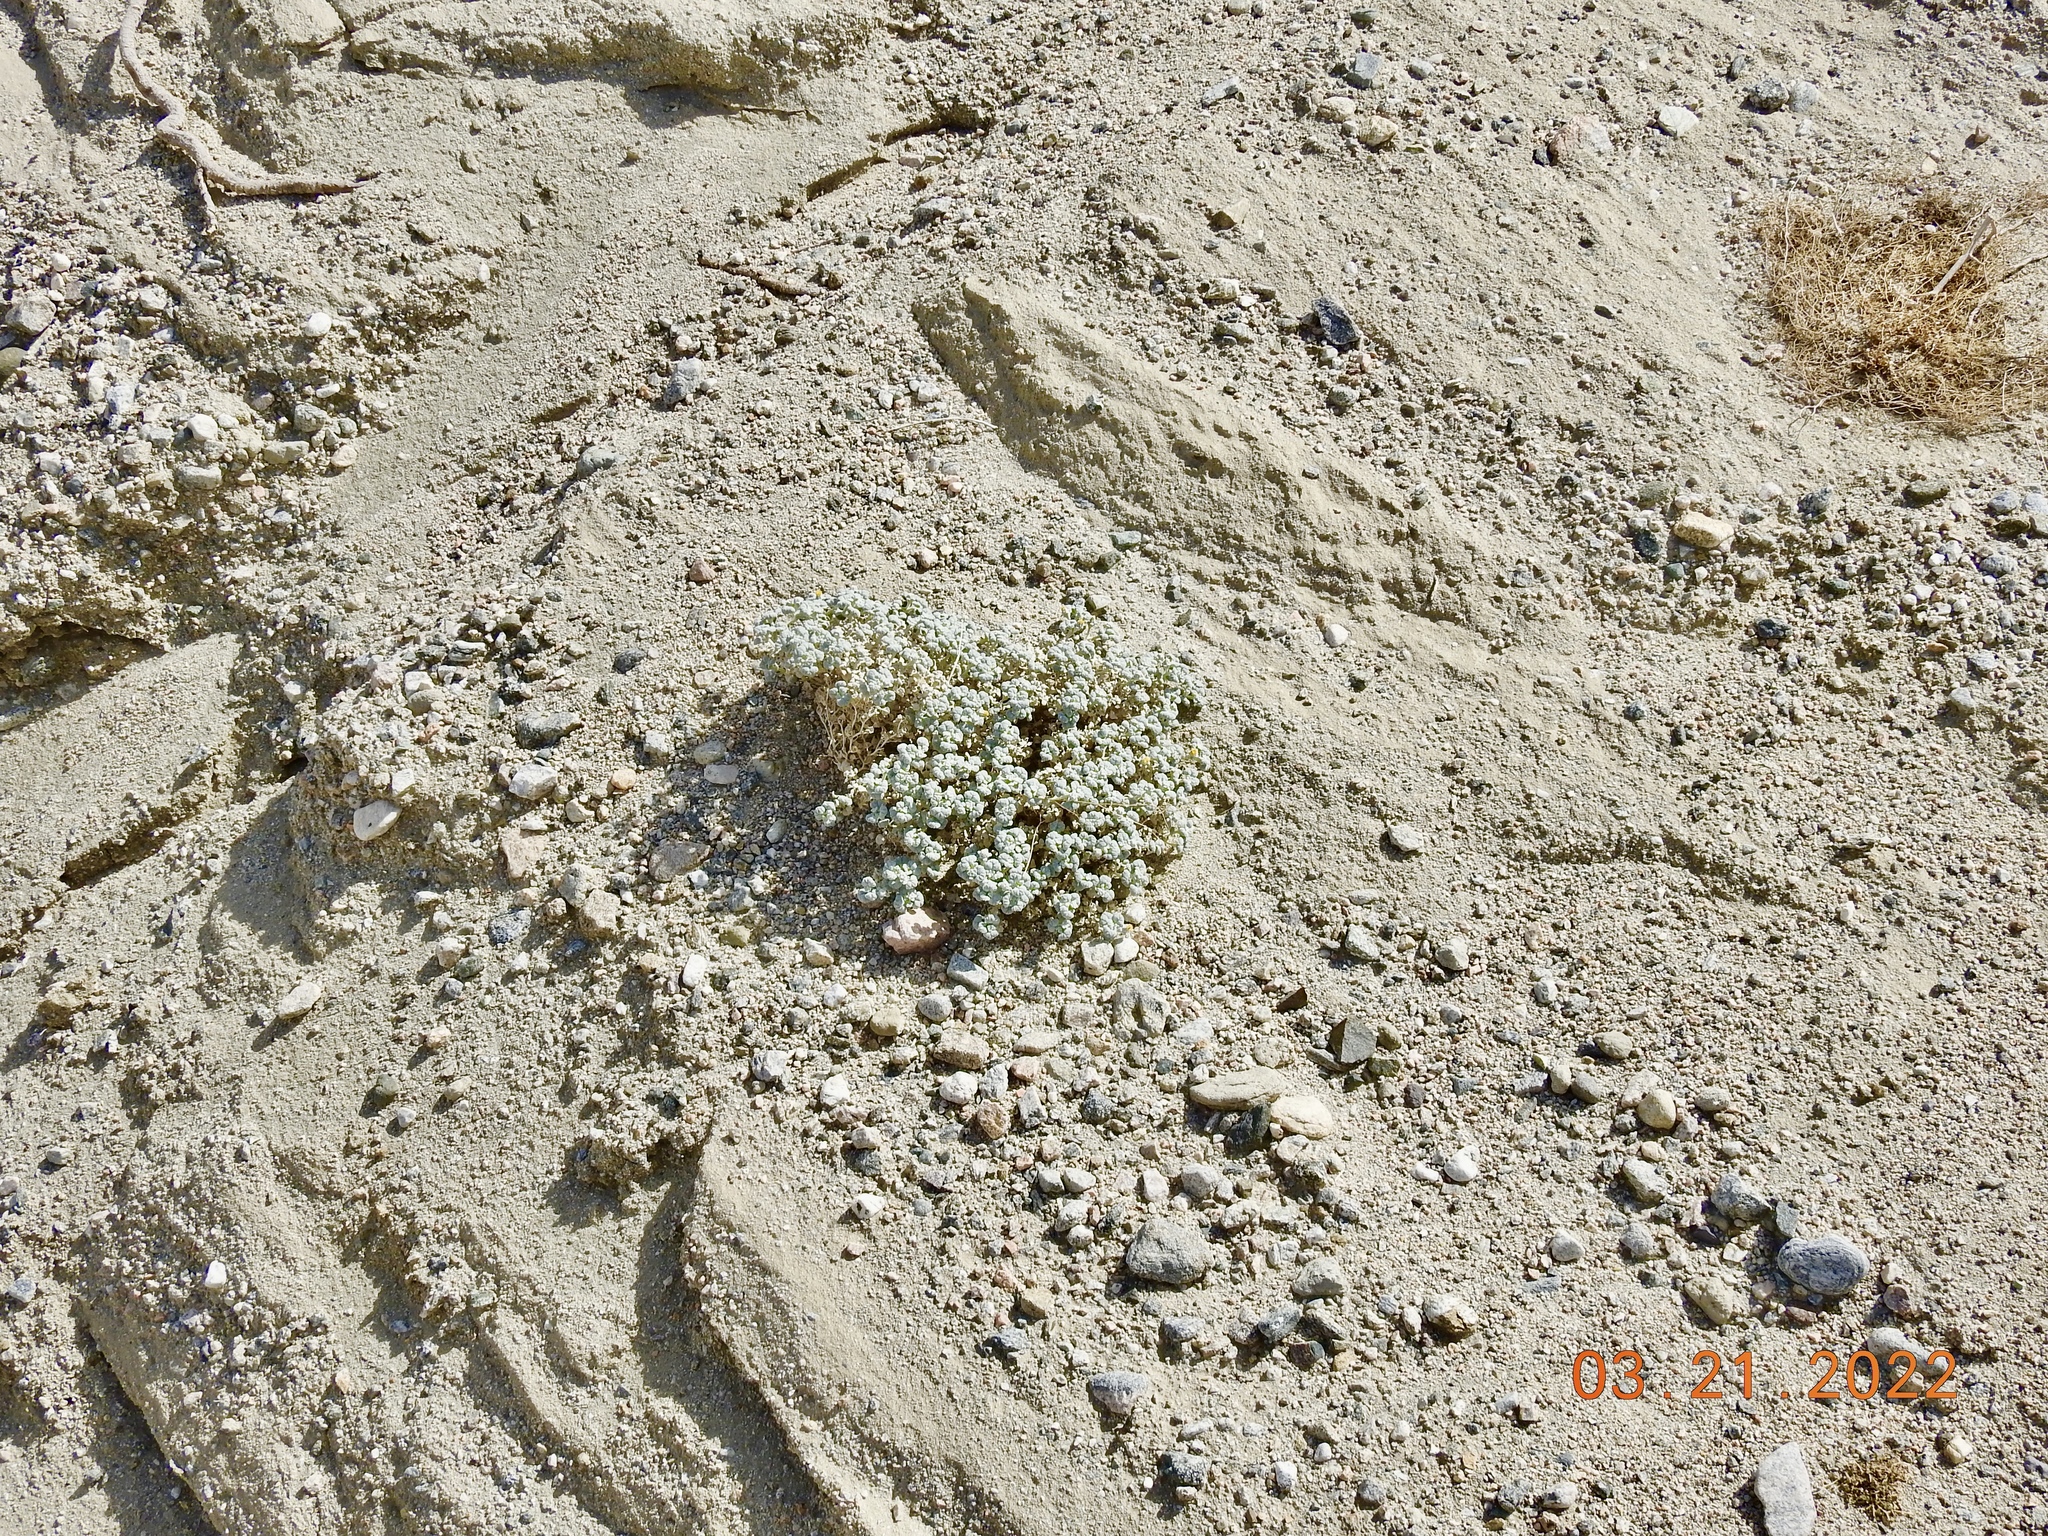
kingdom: Plantae
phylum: Tracheophyta
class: Magnoliopsida
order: Asterales
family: Asteraceae
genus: Psathyrotes
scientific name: Psathyrotes ramosissima
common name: Turtleback
